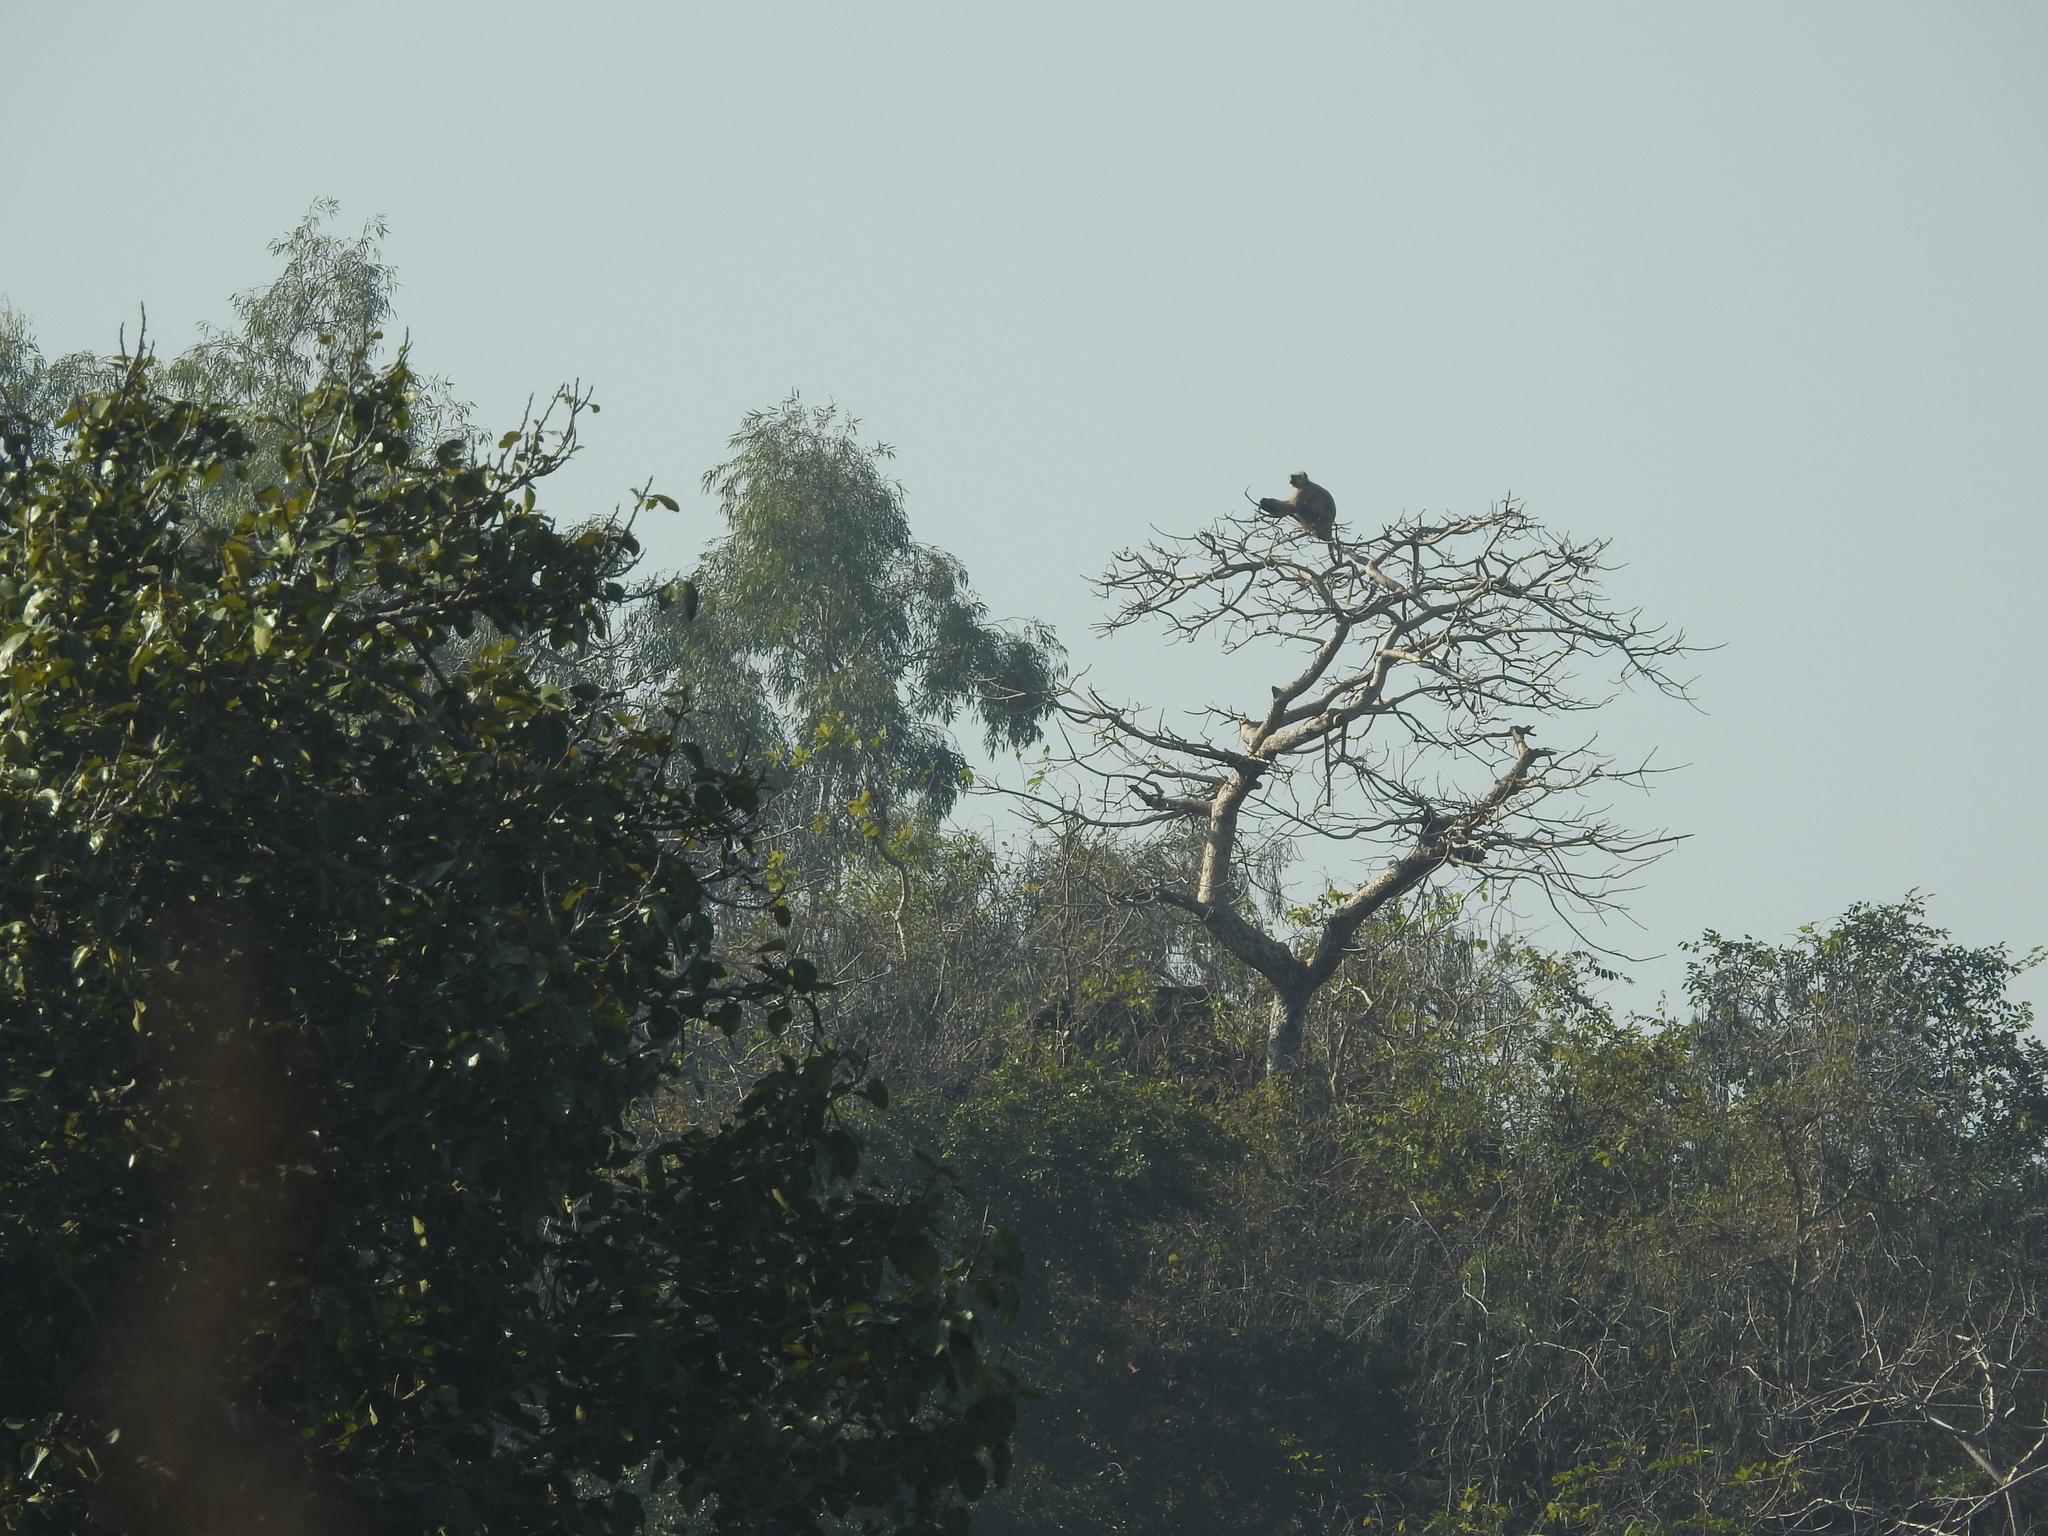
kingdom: Animalia
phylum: Chordata
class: Mammalia
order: Primates
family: Cercopithecidae
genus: Semnopithecus
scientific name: Semnopithecus entellus
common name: Northern plains gray langur
